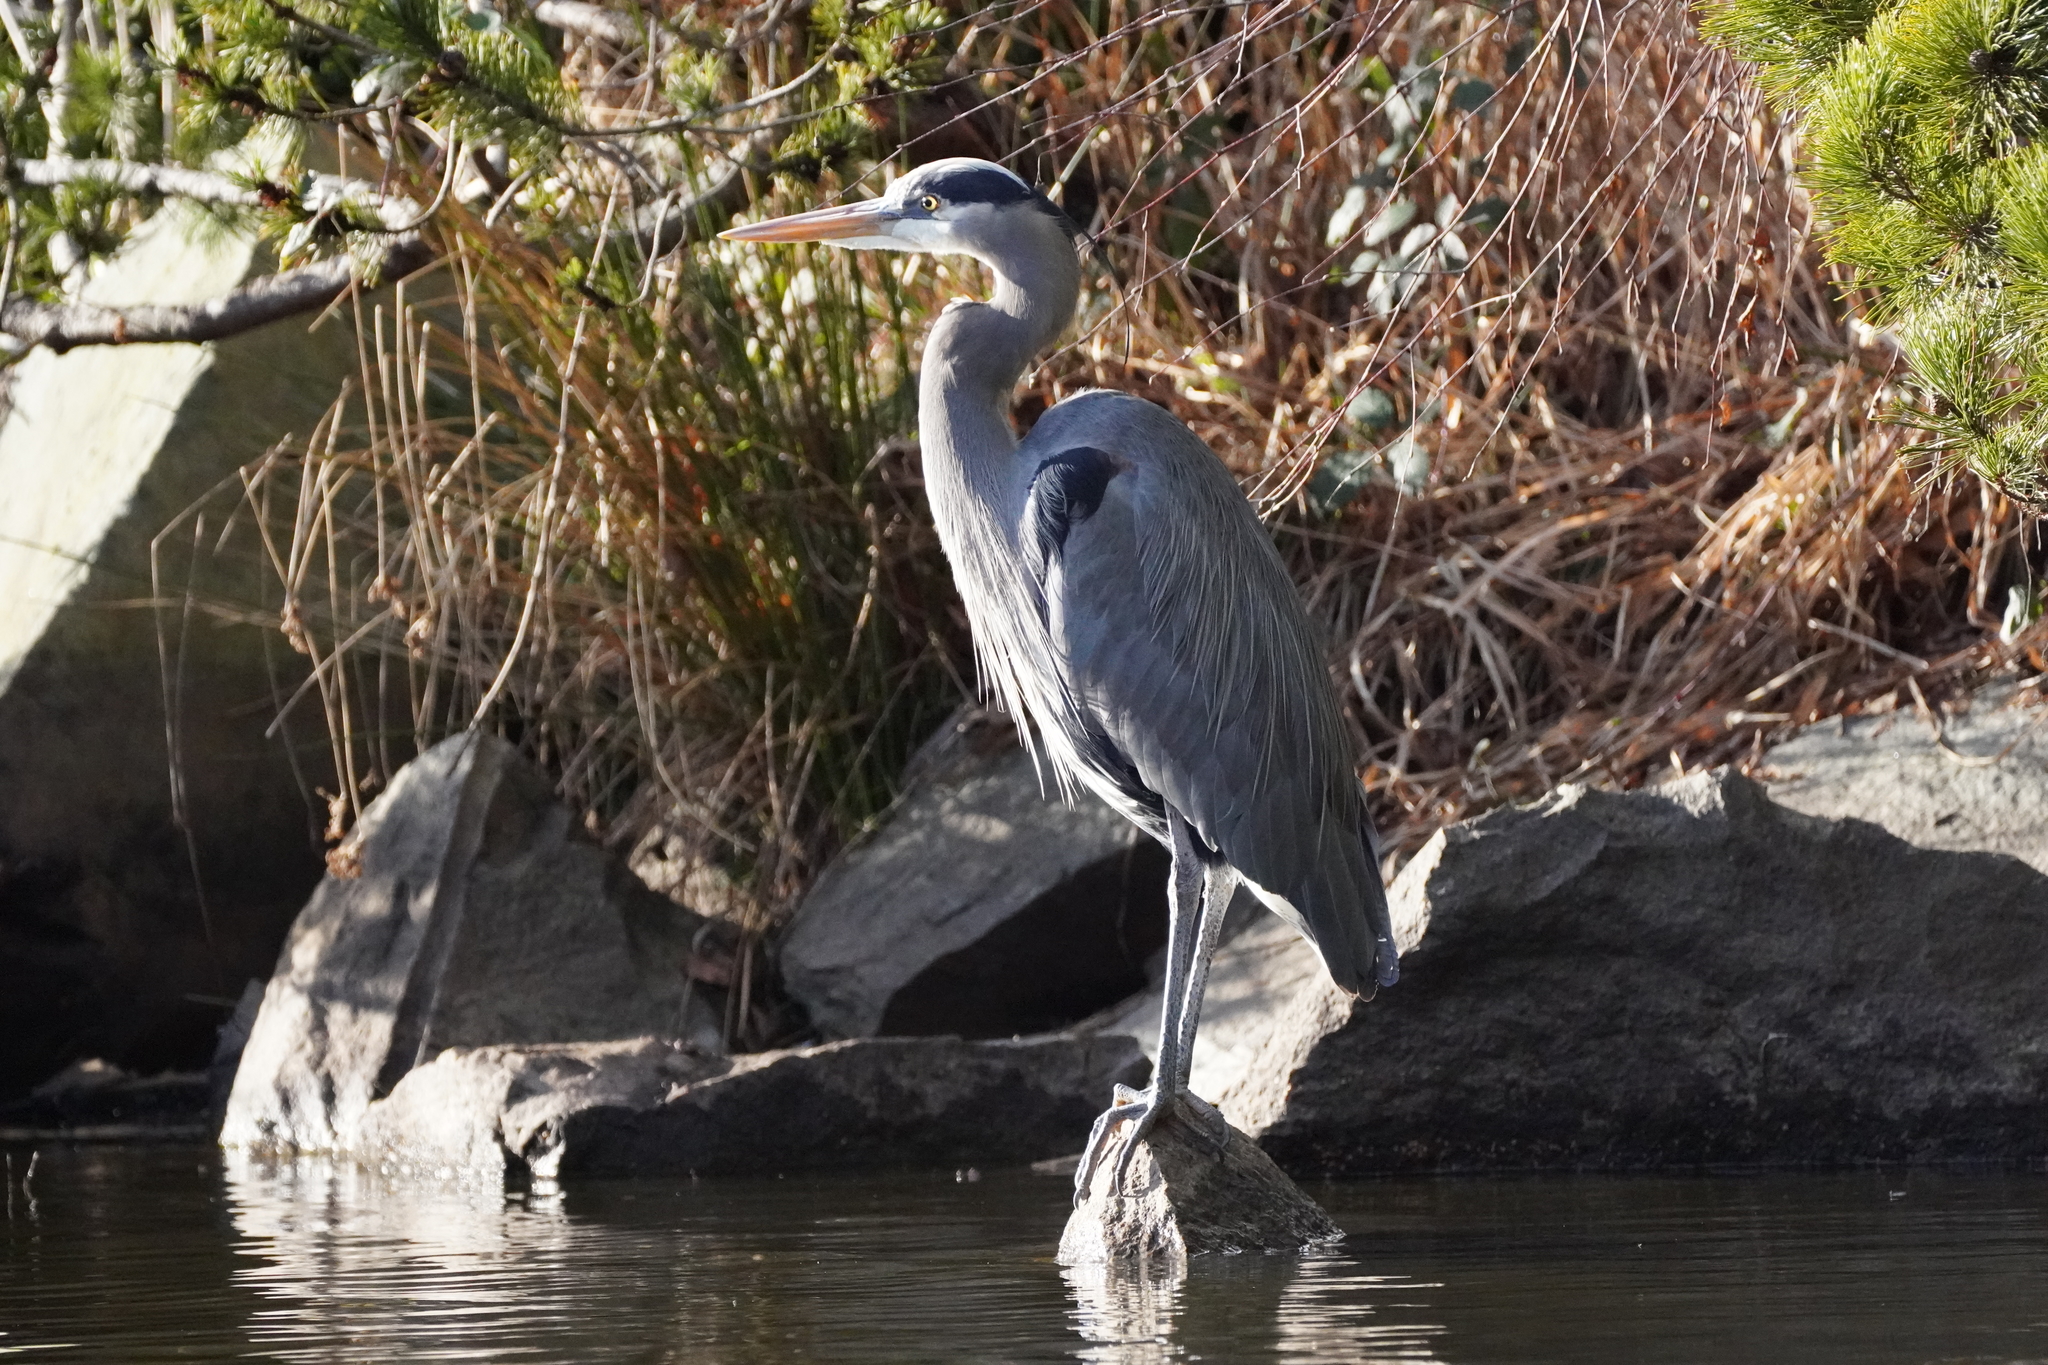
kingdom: Animalia
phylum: Chordata
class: Aves
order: Pelecaniformes
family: Ardeidae
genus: Ardea
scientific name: Ardea herodias
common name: Great blue heron
